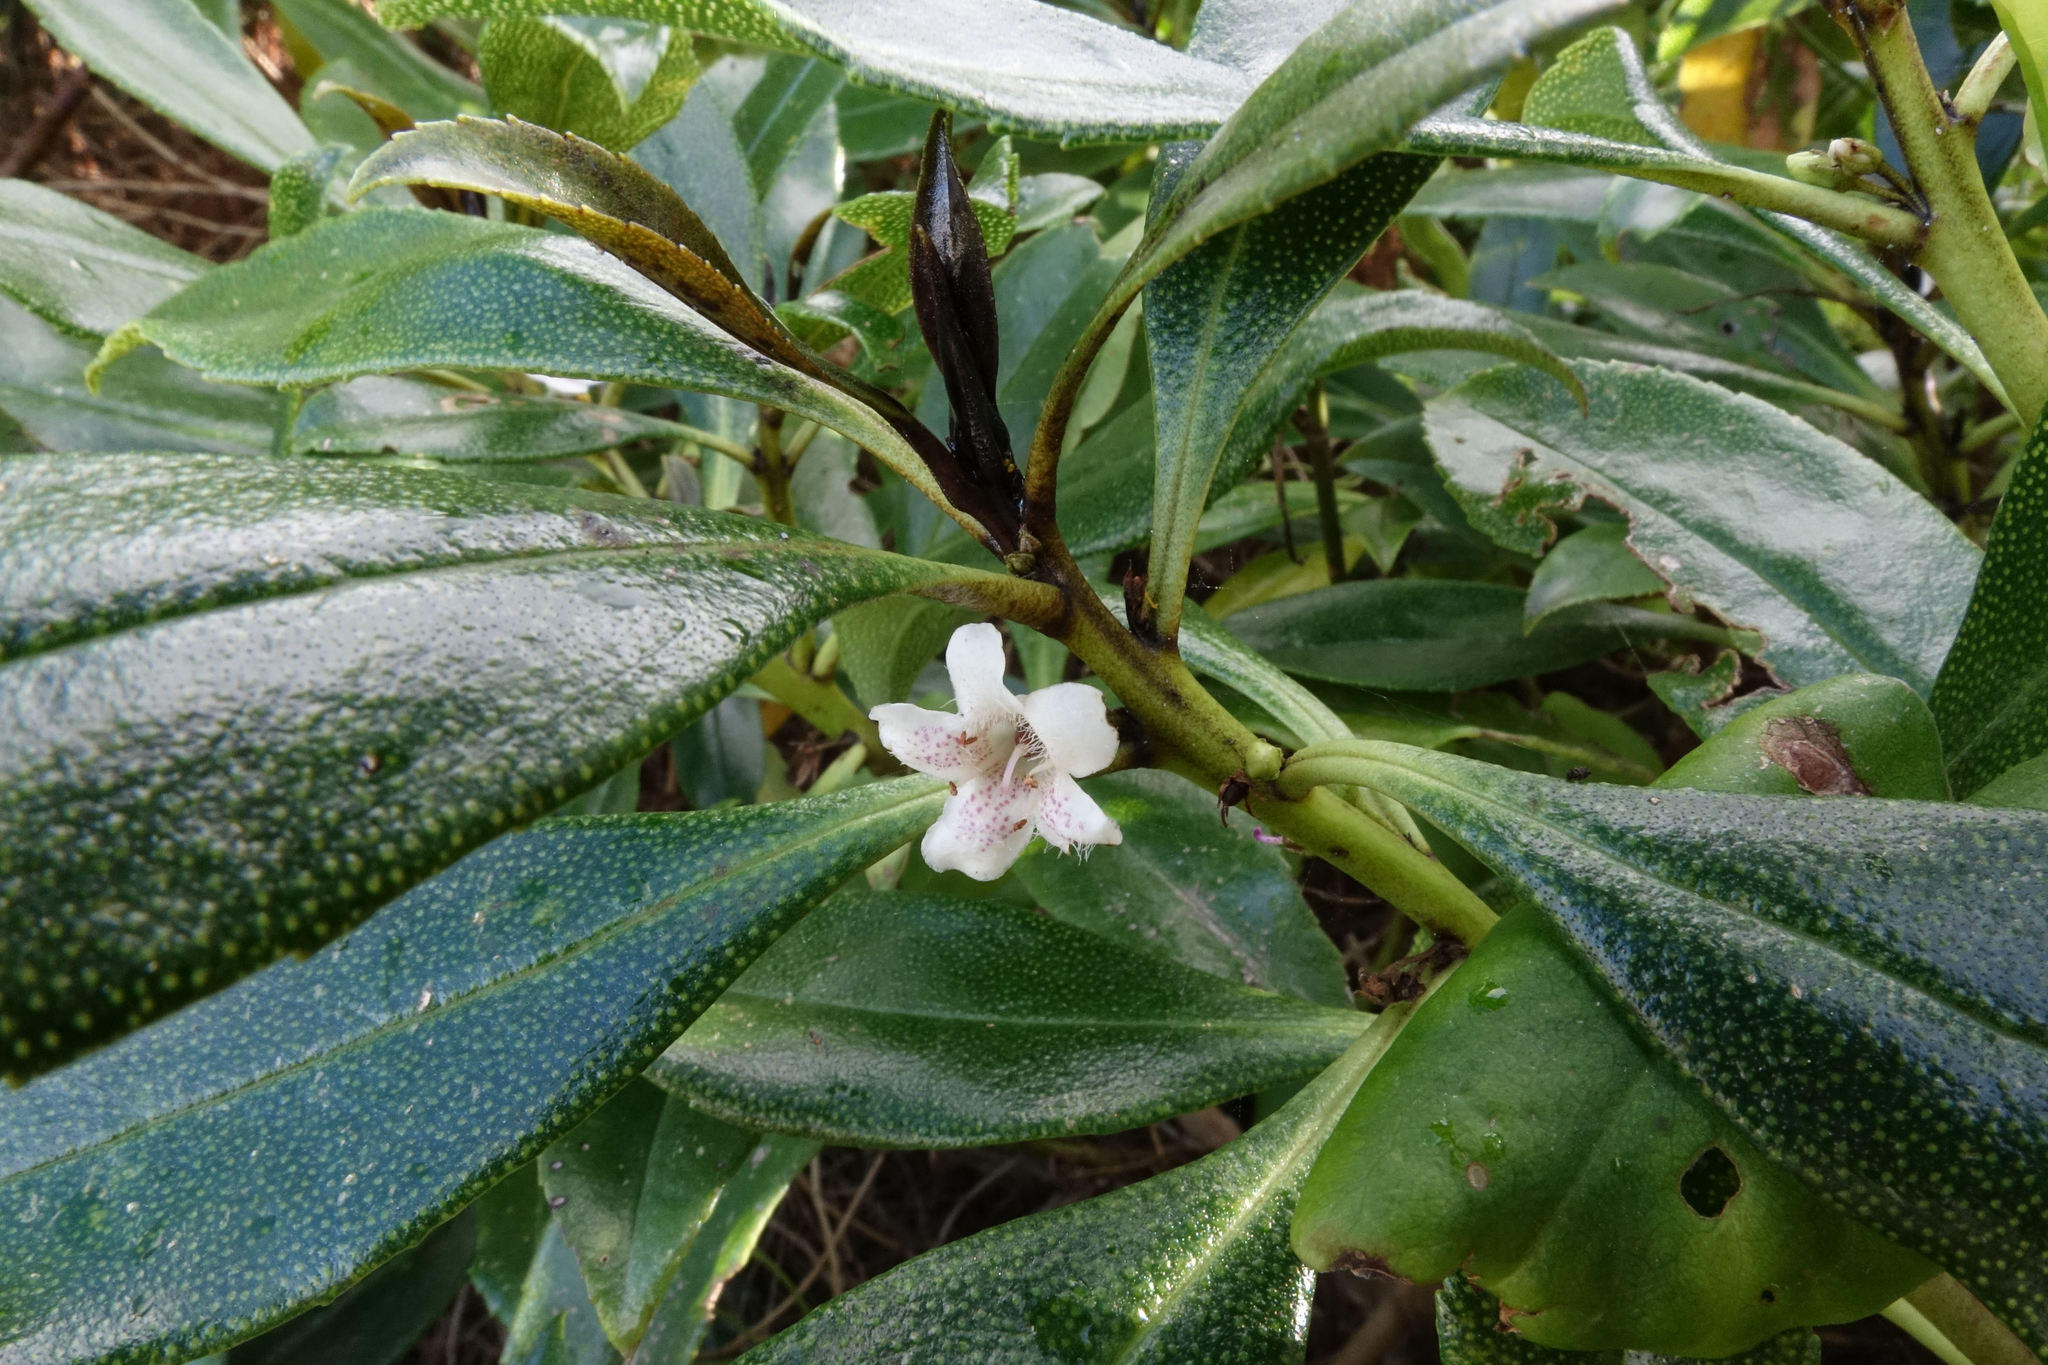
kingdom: Plantae
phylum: Tracheophyta
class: Magnoliopsida
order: Lamiales
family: Scrophulariaceae
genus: Myoporum
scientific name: Myoporum laetum
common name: Ngaio tree
